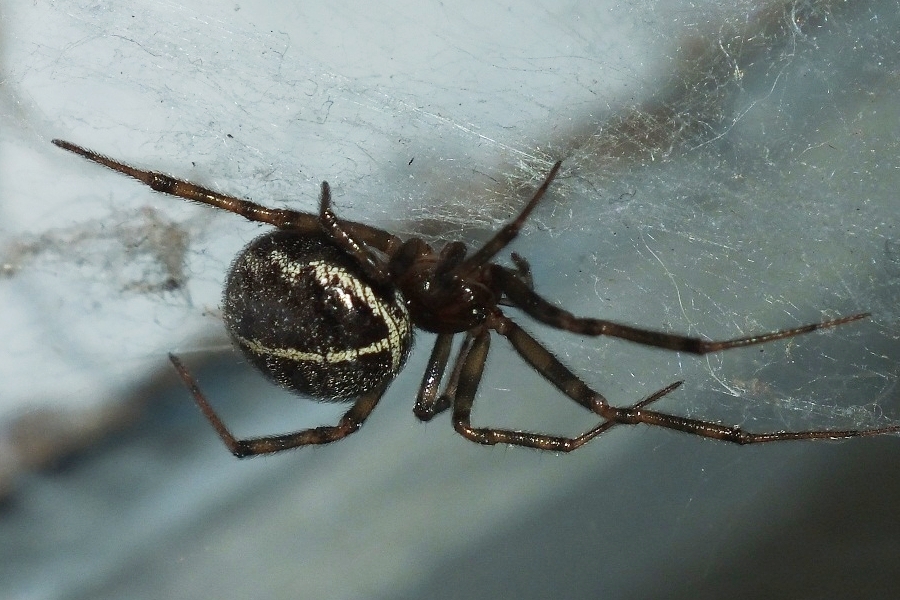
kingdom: Animalia
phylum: Arthropoda
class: Arachnida
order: Araneae
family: Theridiidae
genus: Steatoda
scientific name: Steatoda castanea
